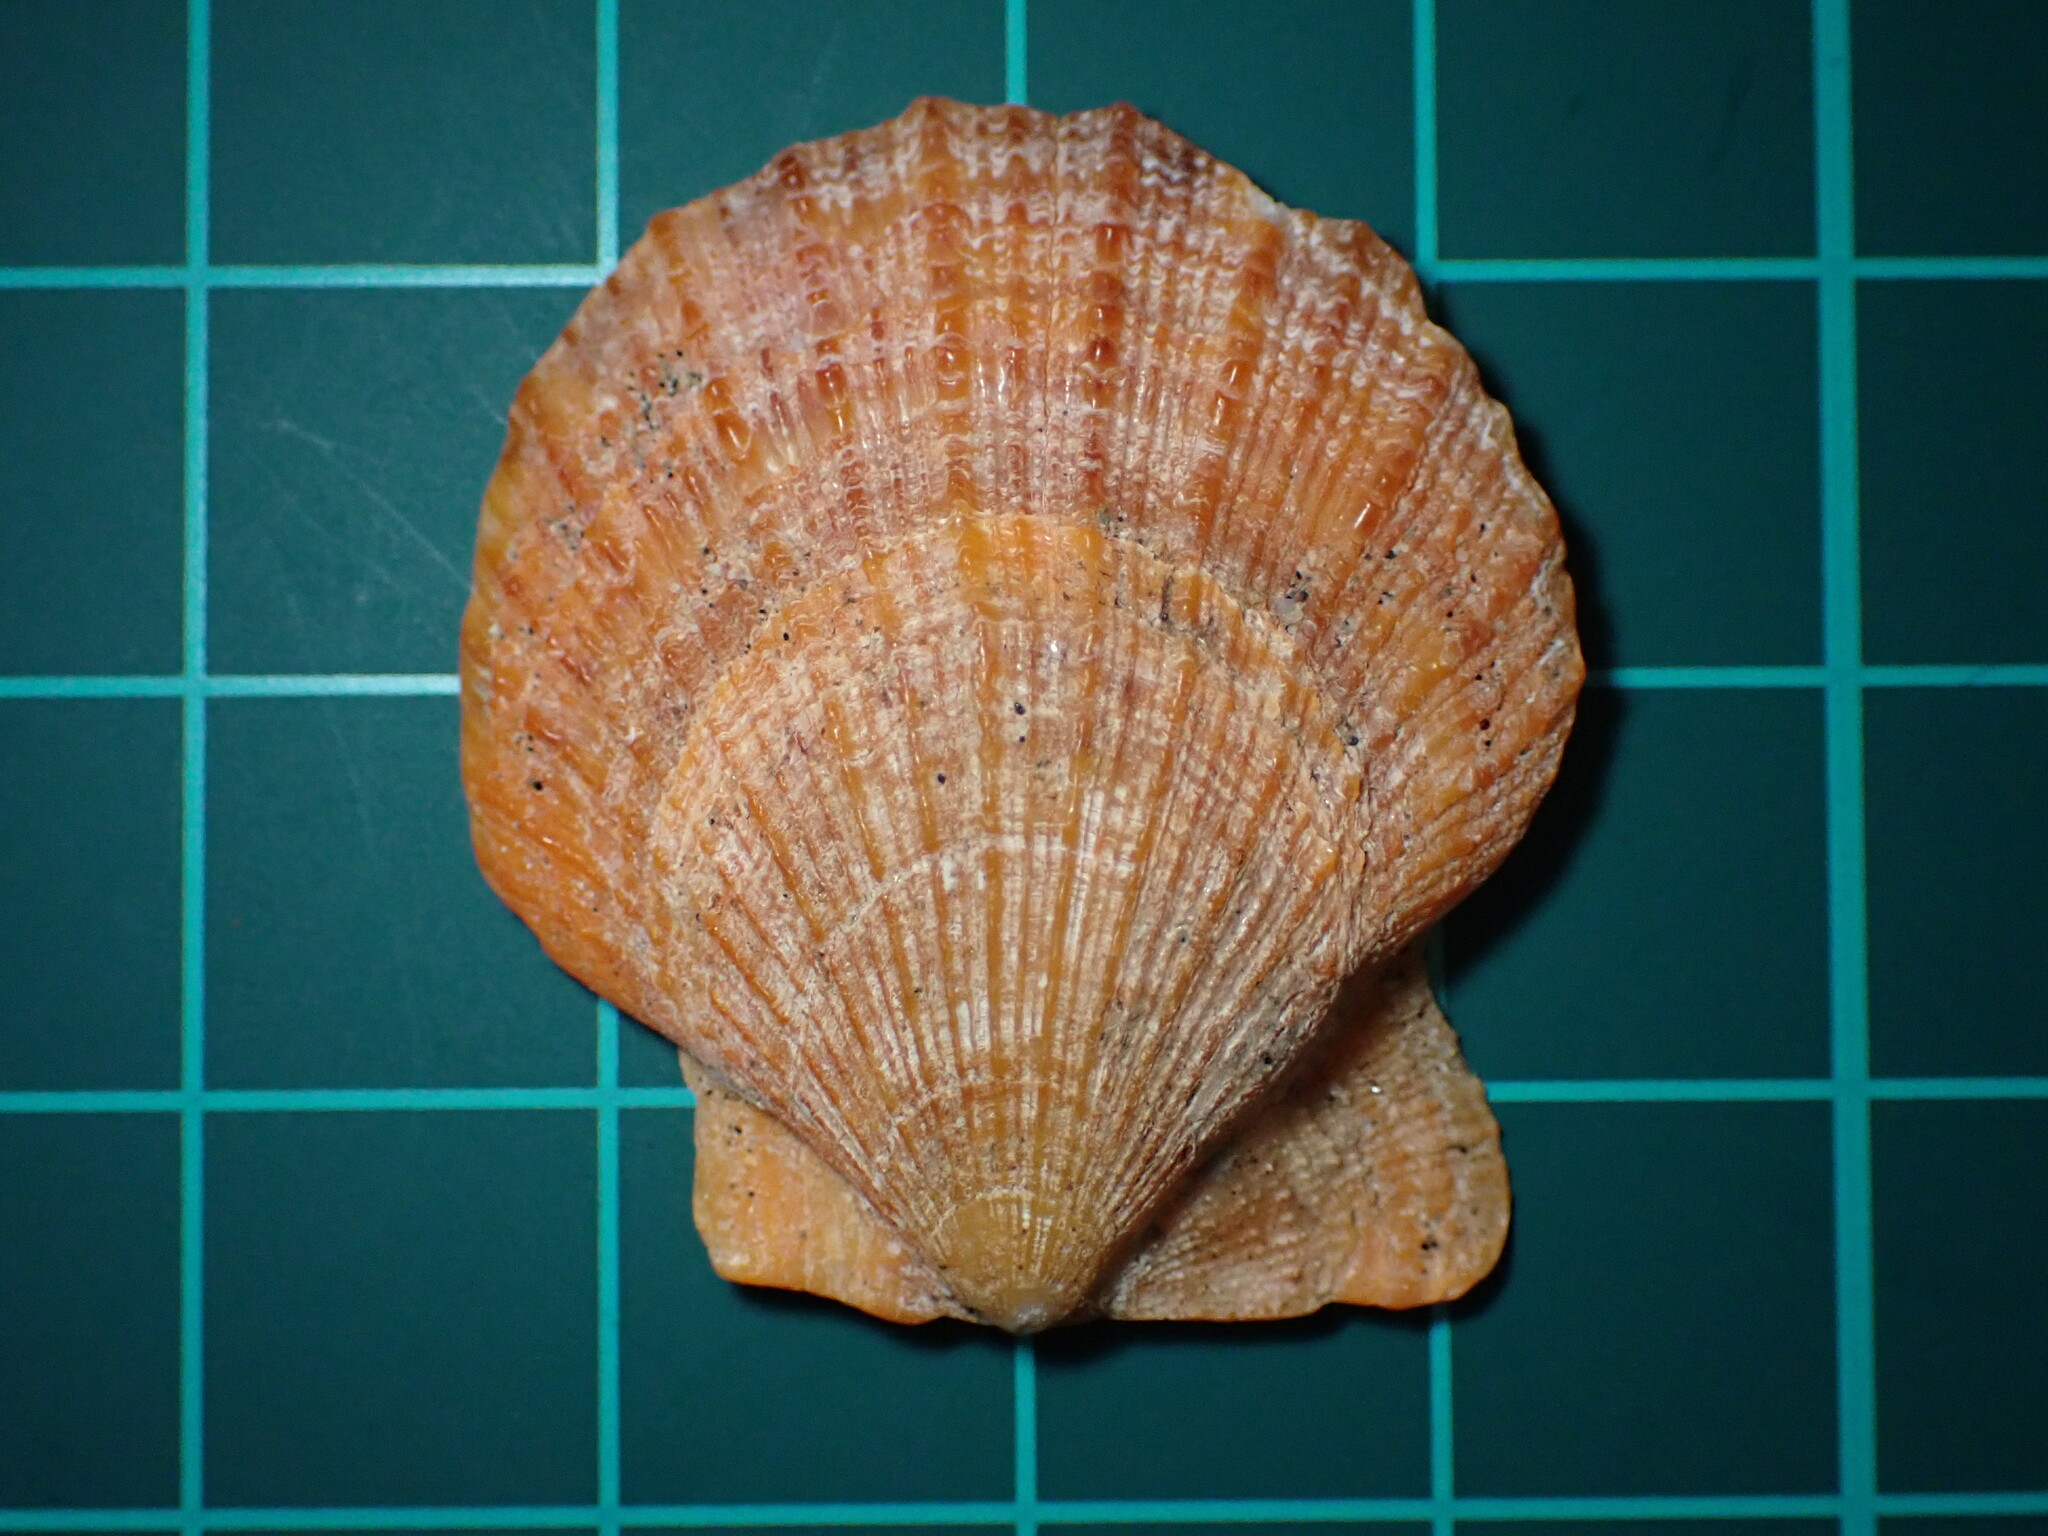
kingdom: Animalia
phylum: Mollusca
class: Bivalvia
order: Pectinida
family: Pectinidae
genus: Crassadoma
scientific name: Crassadoma gigantea
